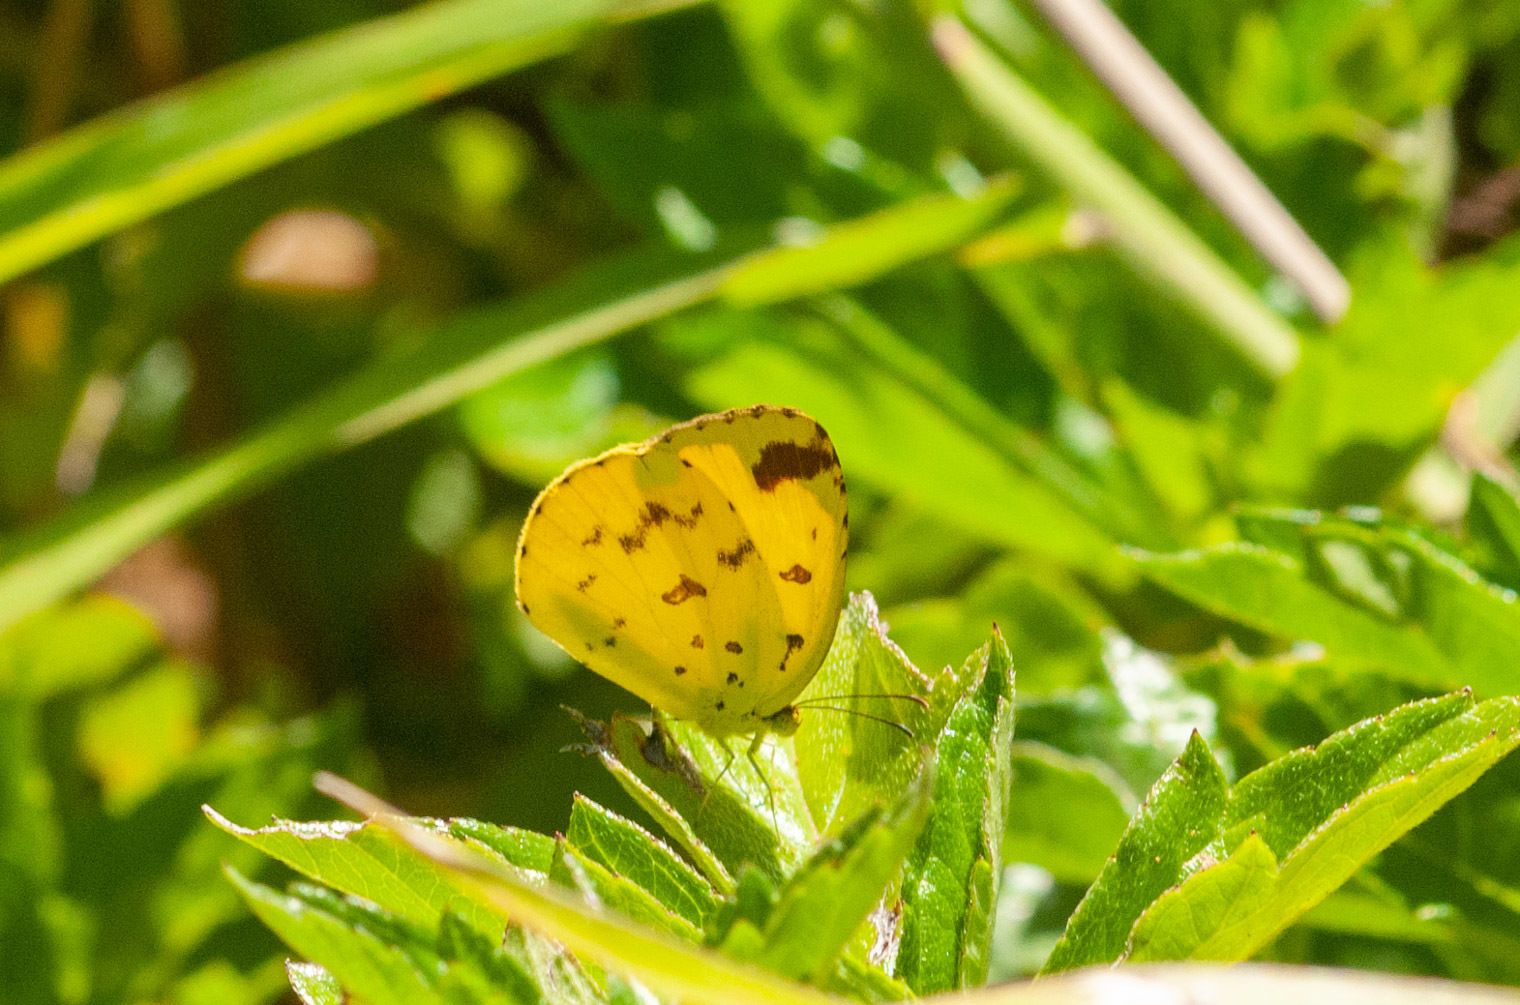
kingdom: Animalia
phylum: Arthropoda
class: Insecta
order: Lepidoptera
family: Pieridae
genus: Eurema
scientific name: Eurema hecabe
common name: Pale grass yellow
